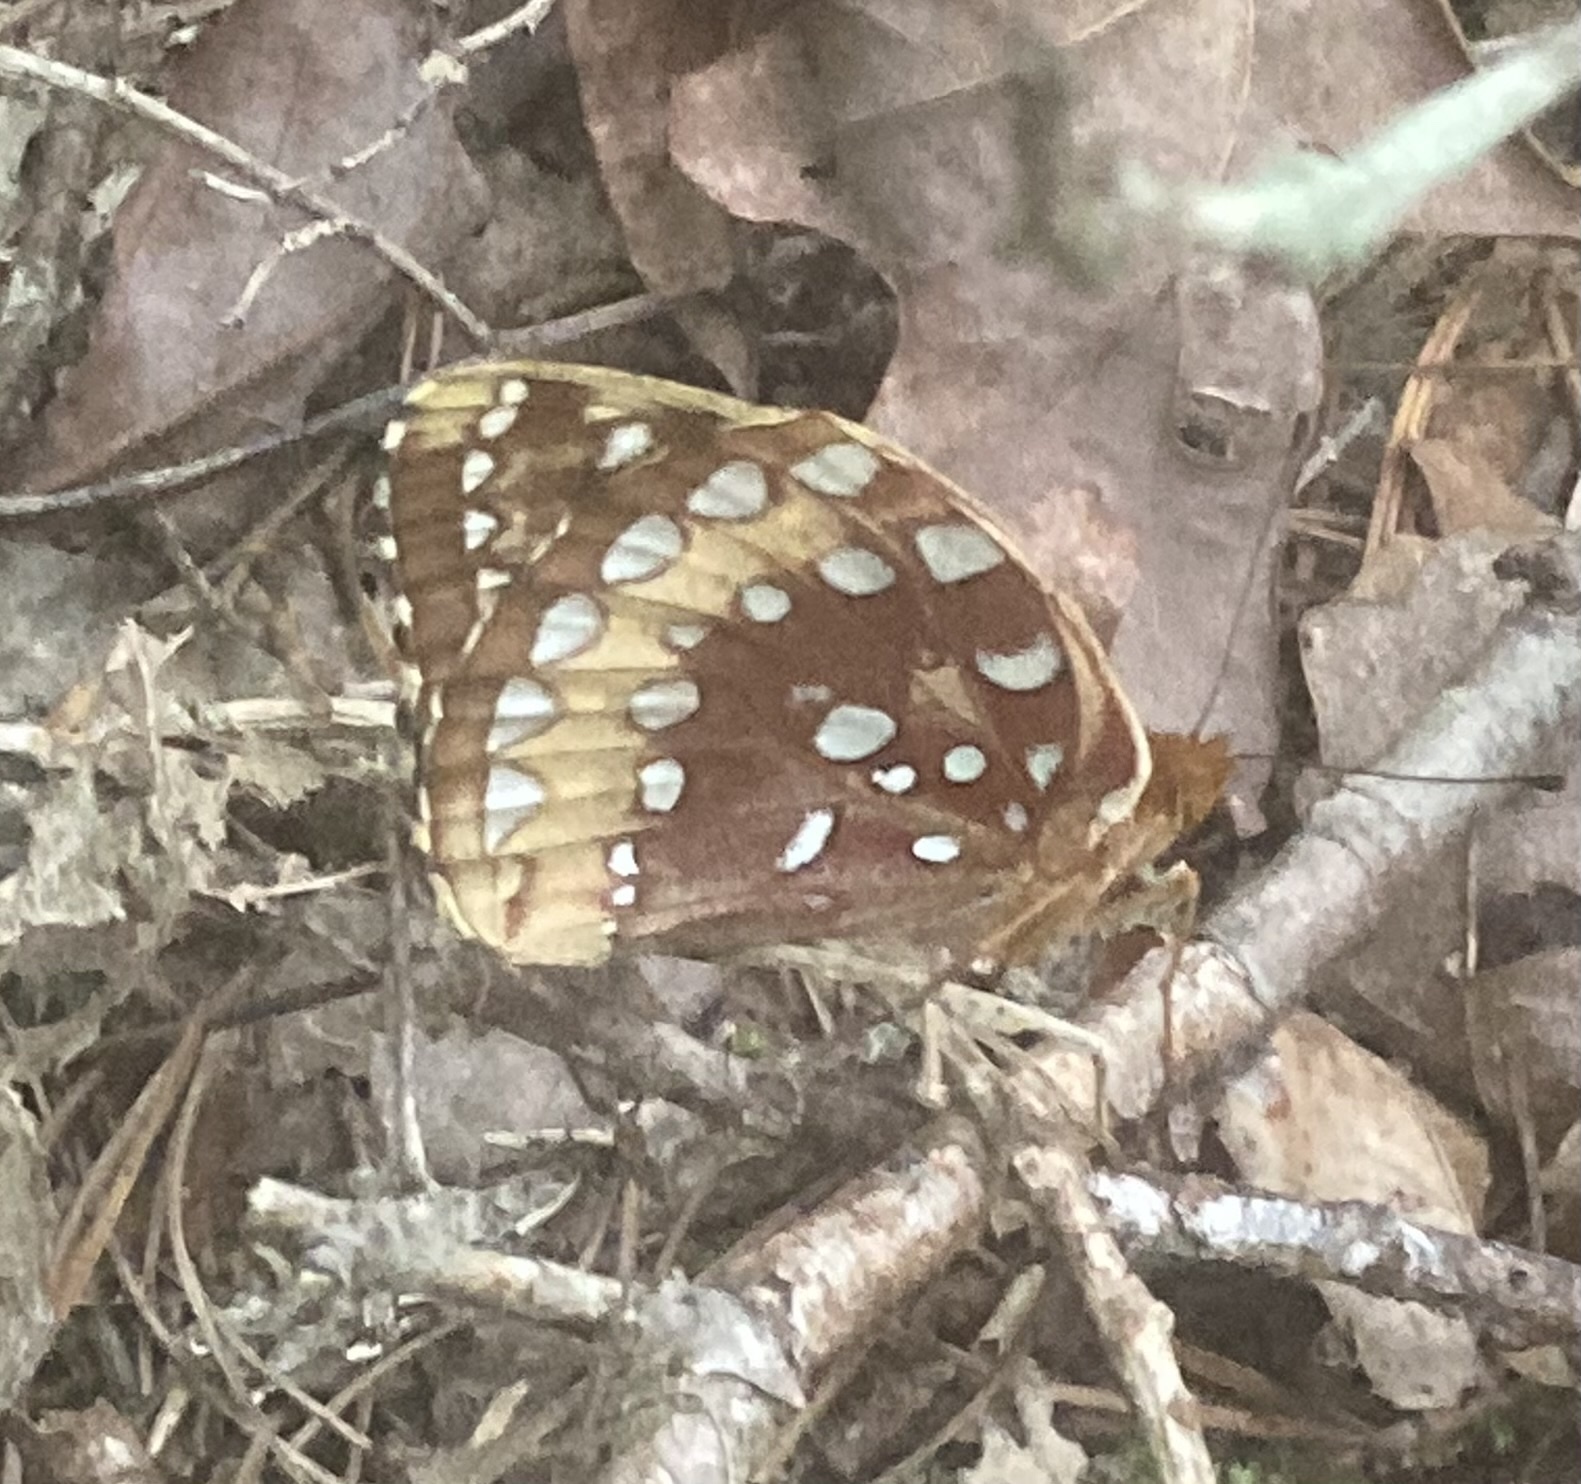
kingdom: Animalia
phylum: Arthropoda
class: Insecta
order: Lepidoptera
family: Nymphalidae
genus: Speyeria
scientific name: Speyeria cybele
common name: Great spangled fritillary
